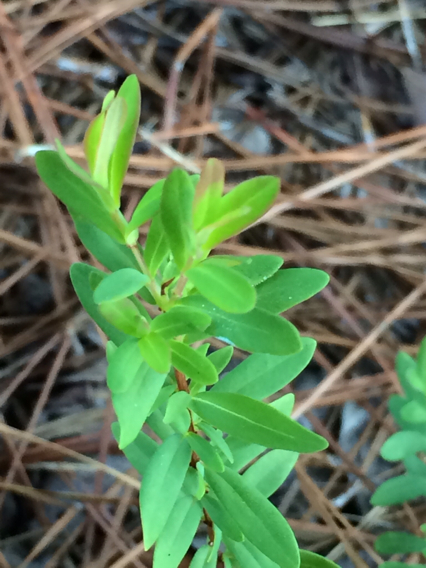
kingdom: Plantae
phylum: Tracheophyta
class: Magnoliopsida
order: Malpighiales
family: Hypericaceae
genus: Hypericum
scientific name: Hypericum hypericoides
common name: St. andrew's cross
